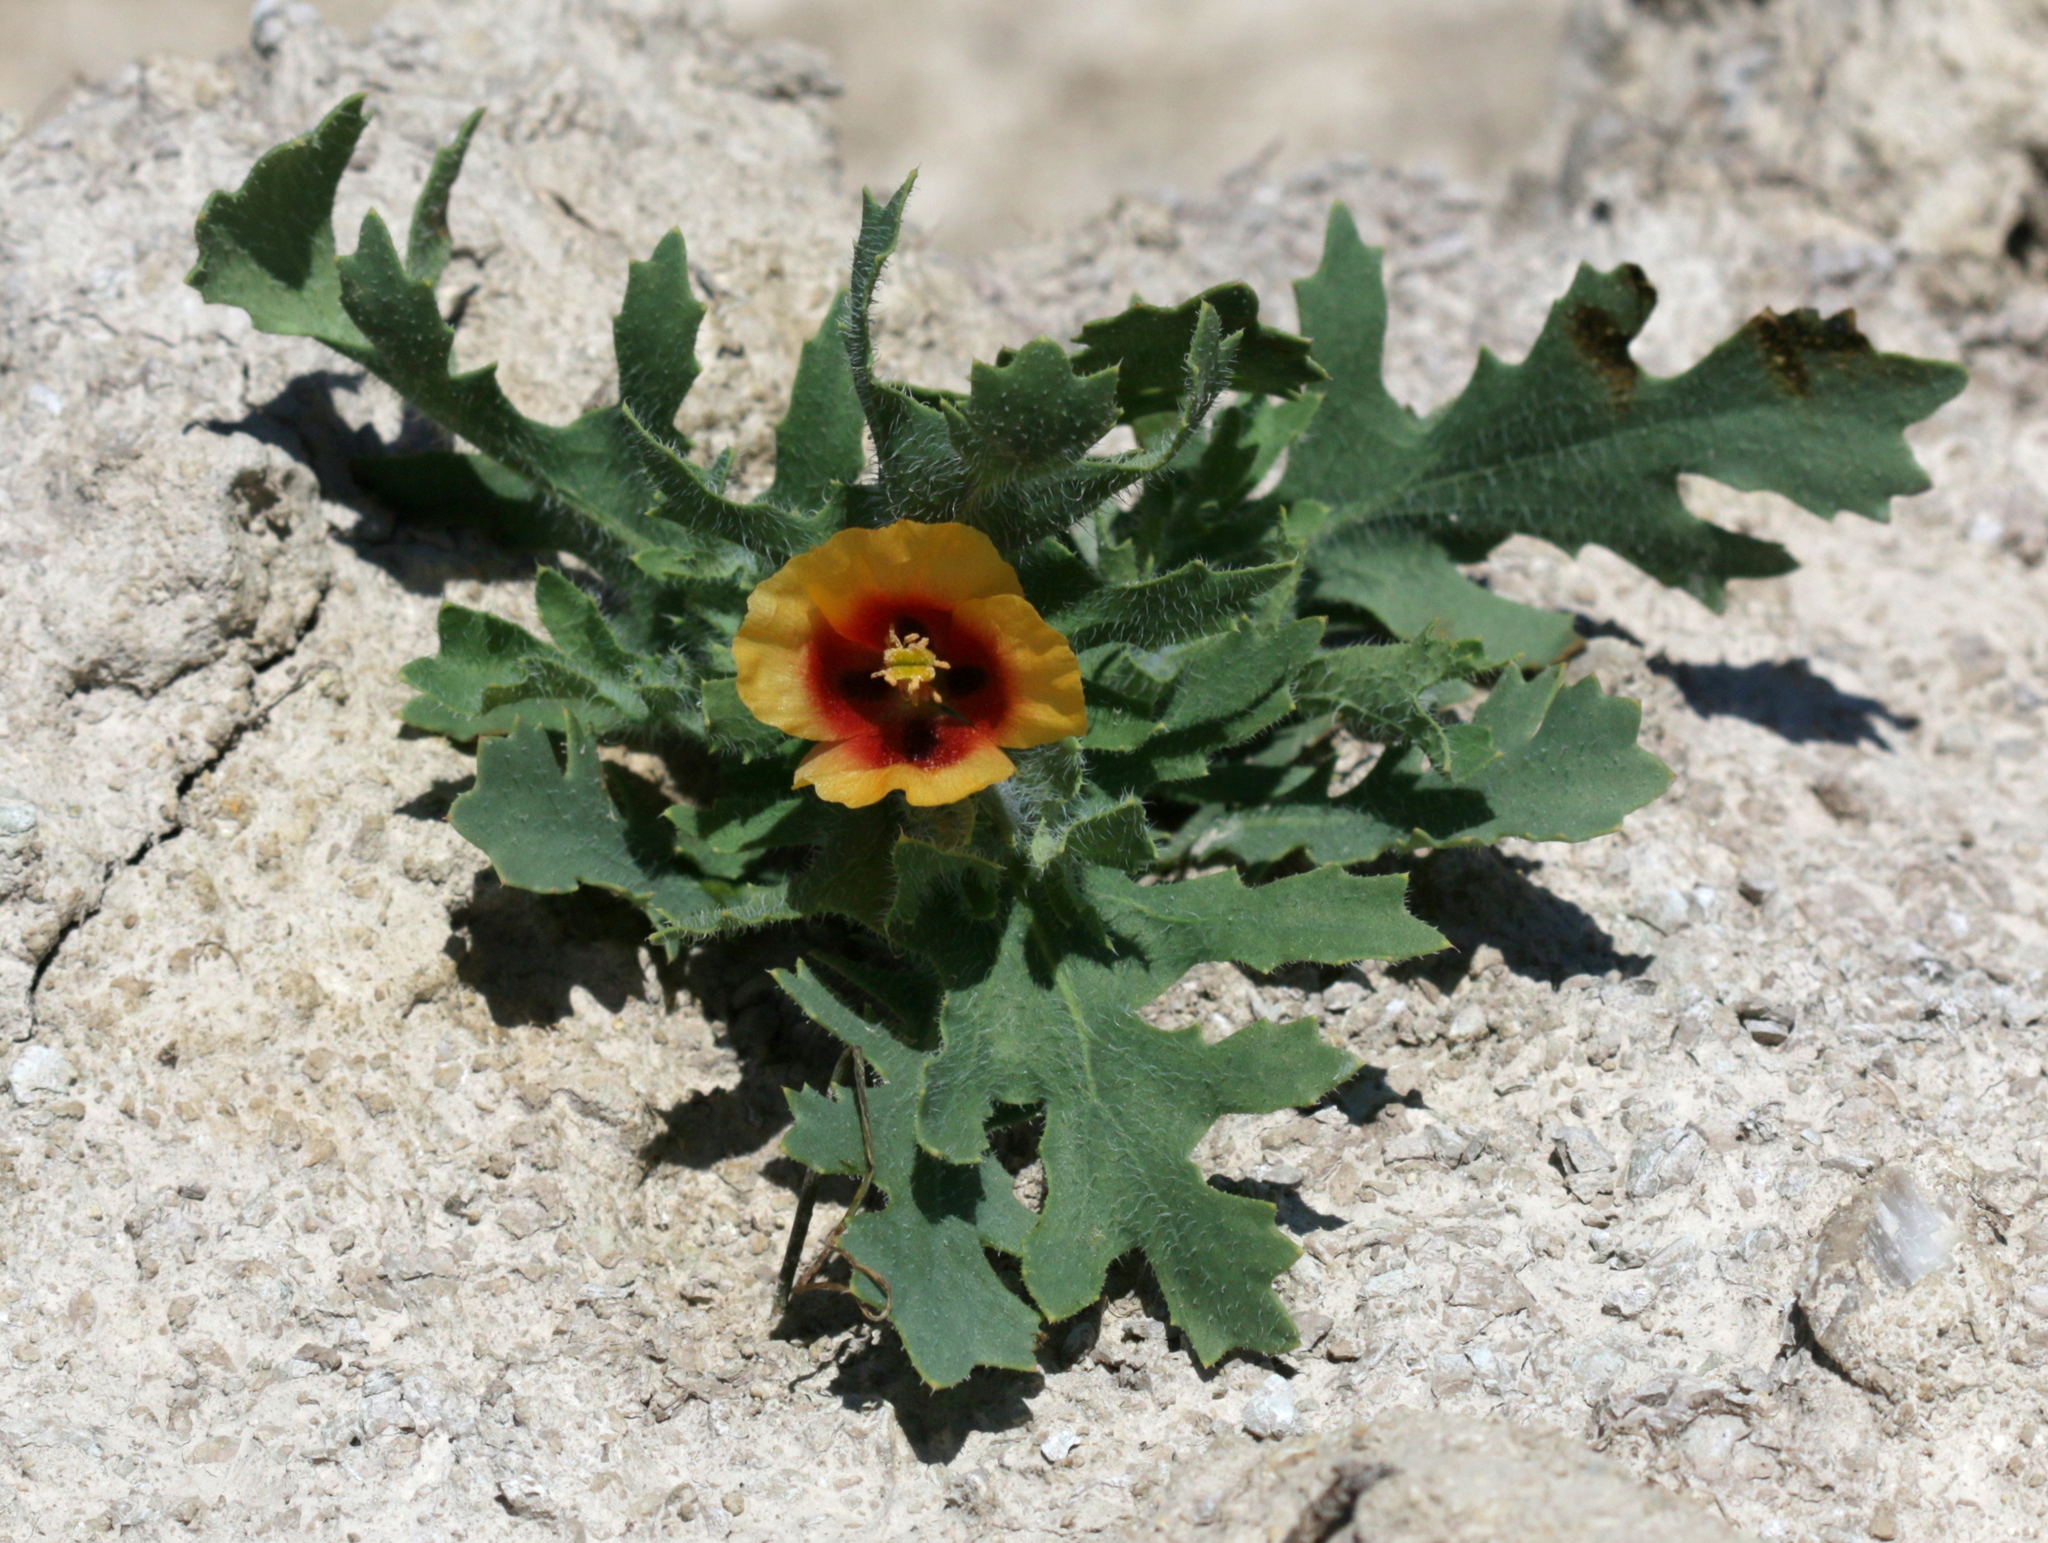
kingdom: Plantae
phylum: Tracheophyta
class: Magnoliopsida
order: Ranunculales
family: Papaveraceae
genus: Glaucium
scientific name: Glaucium corniculatum
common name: Red horned-poppy
